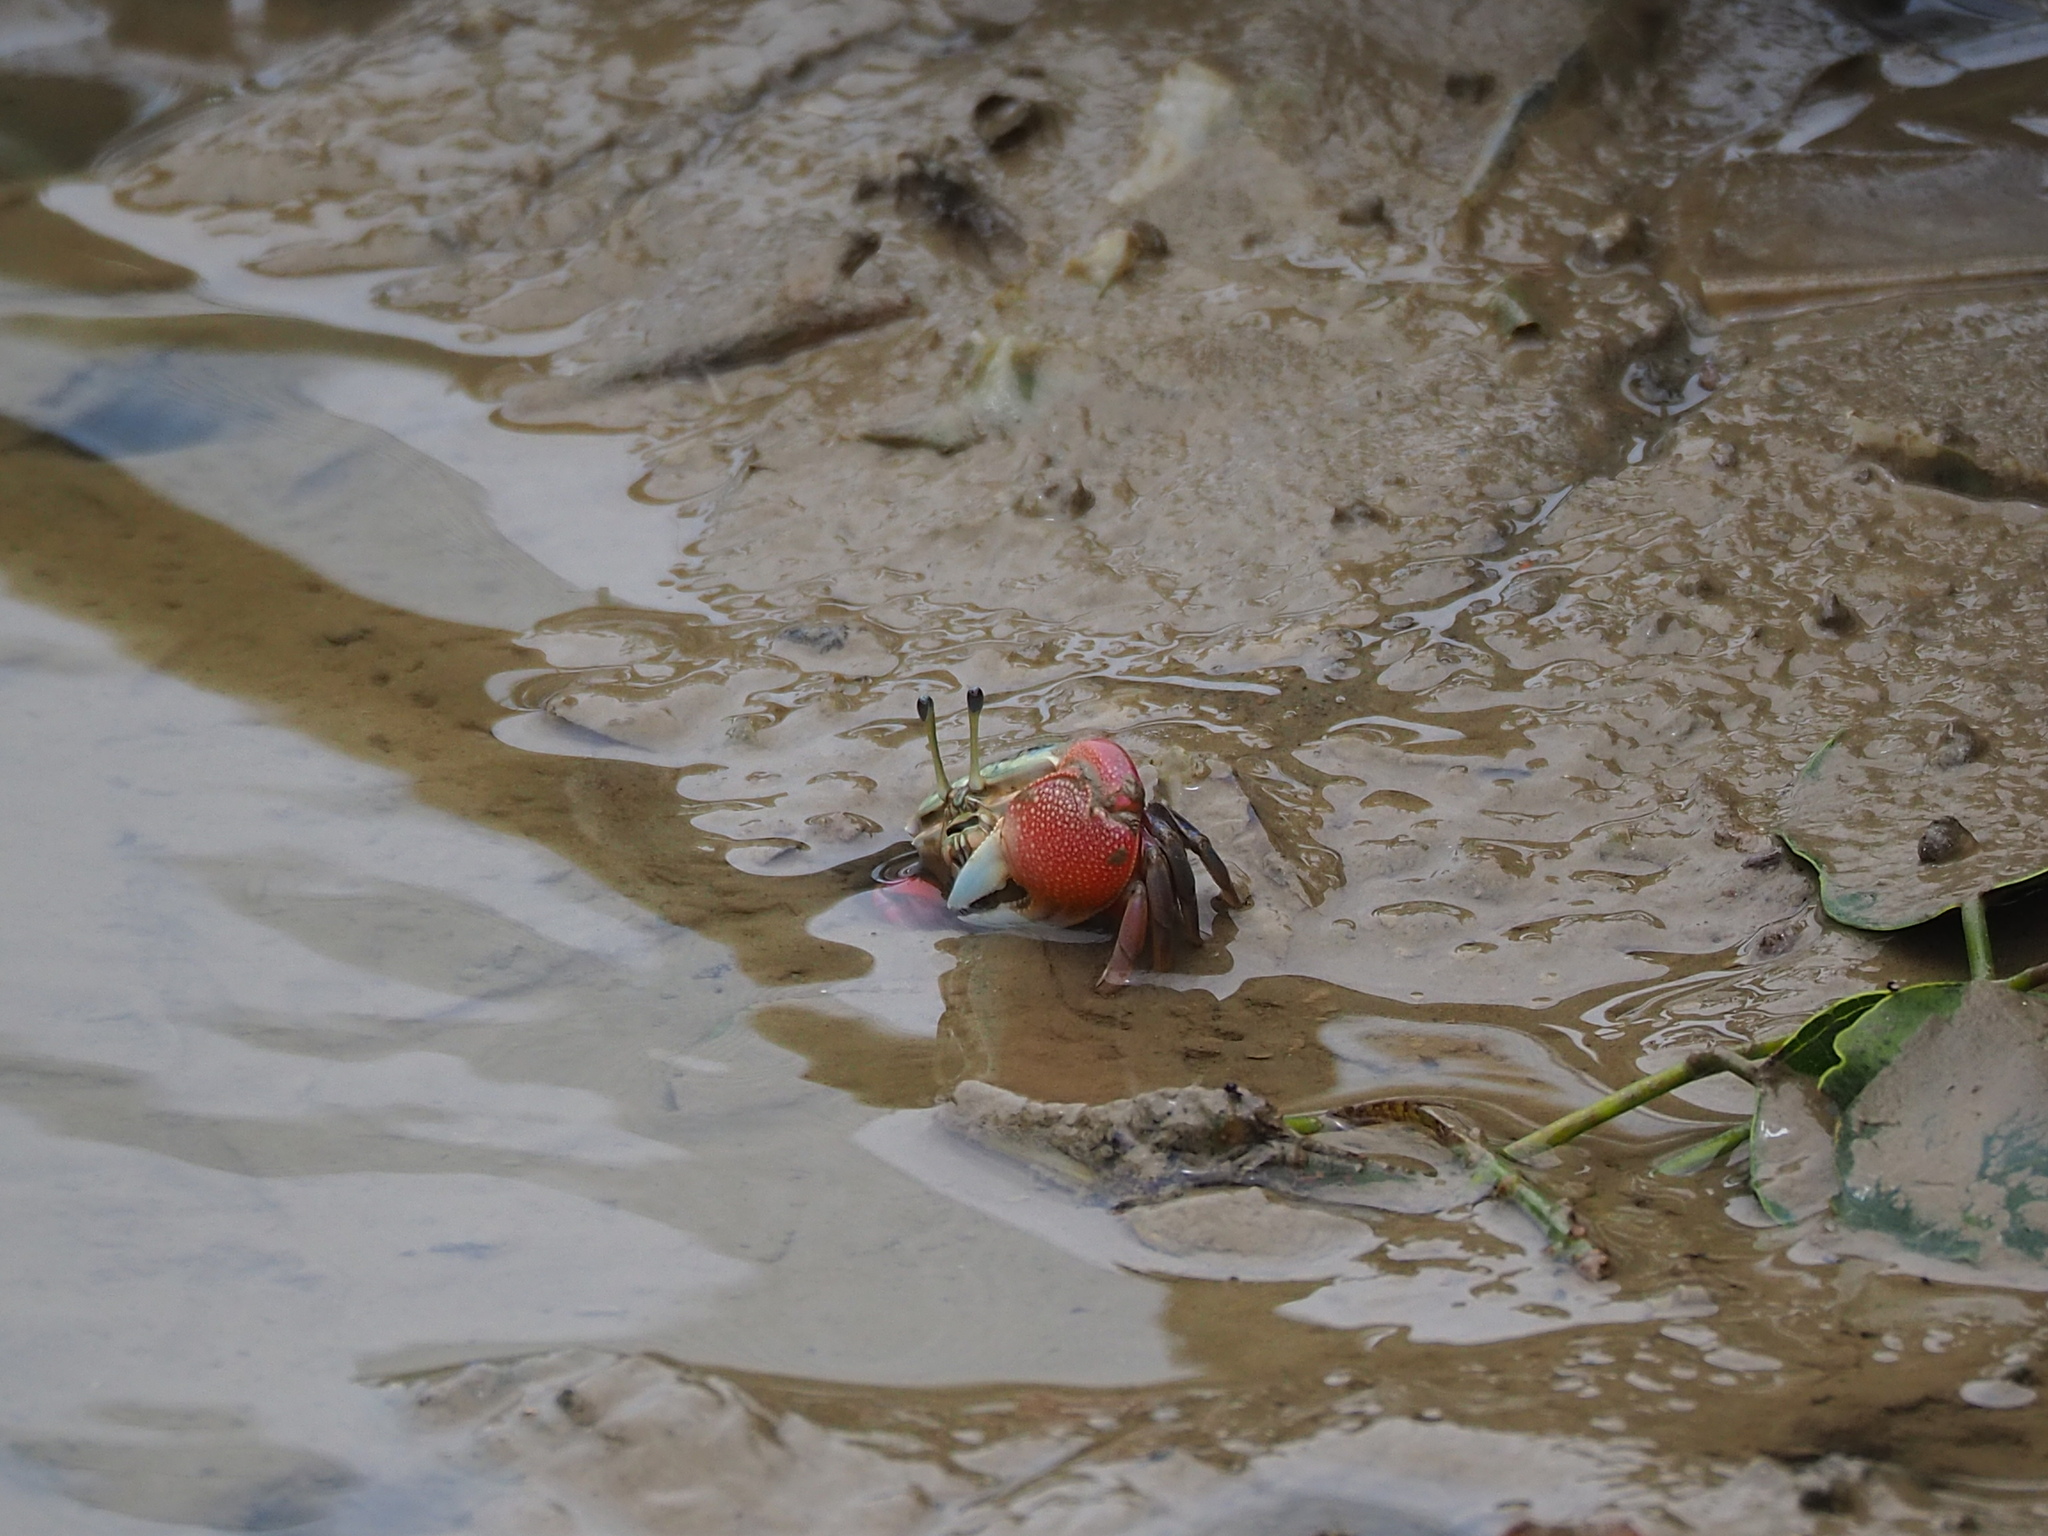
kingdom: Animalia
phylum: Arthropoda
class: Malacostraca
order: Decapoda
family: Ocypodidae
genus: Tubuca
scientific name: Tubuca arcuata
